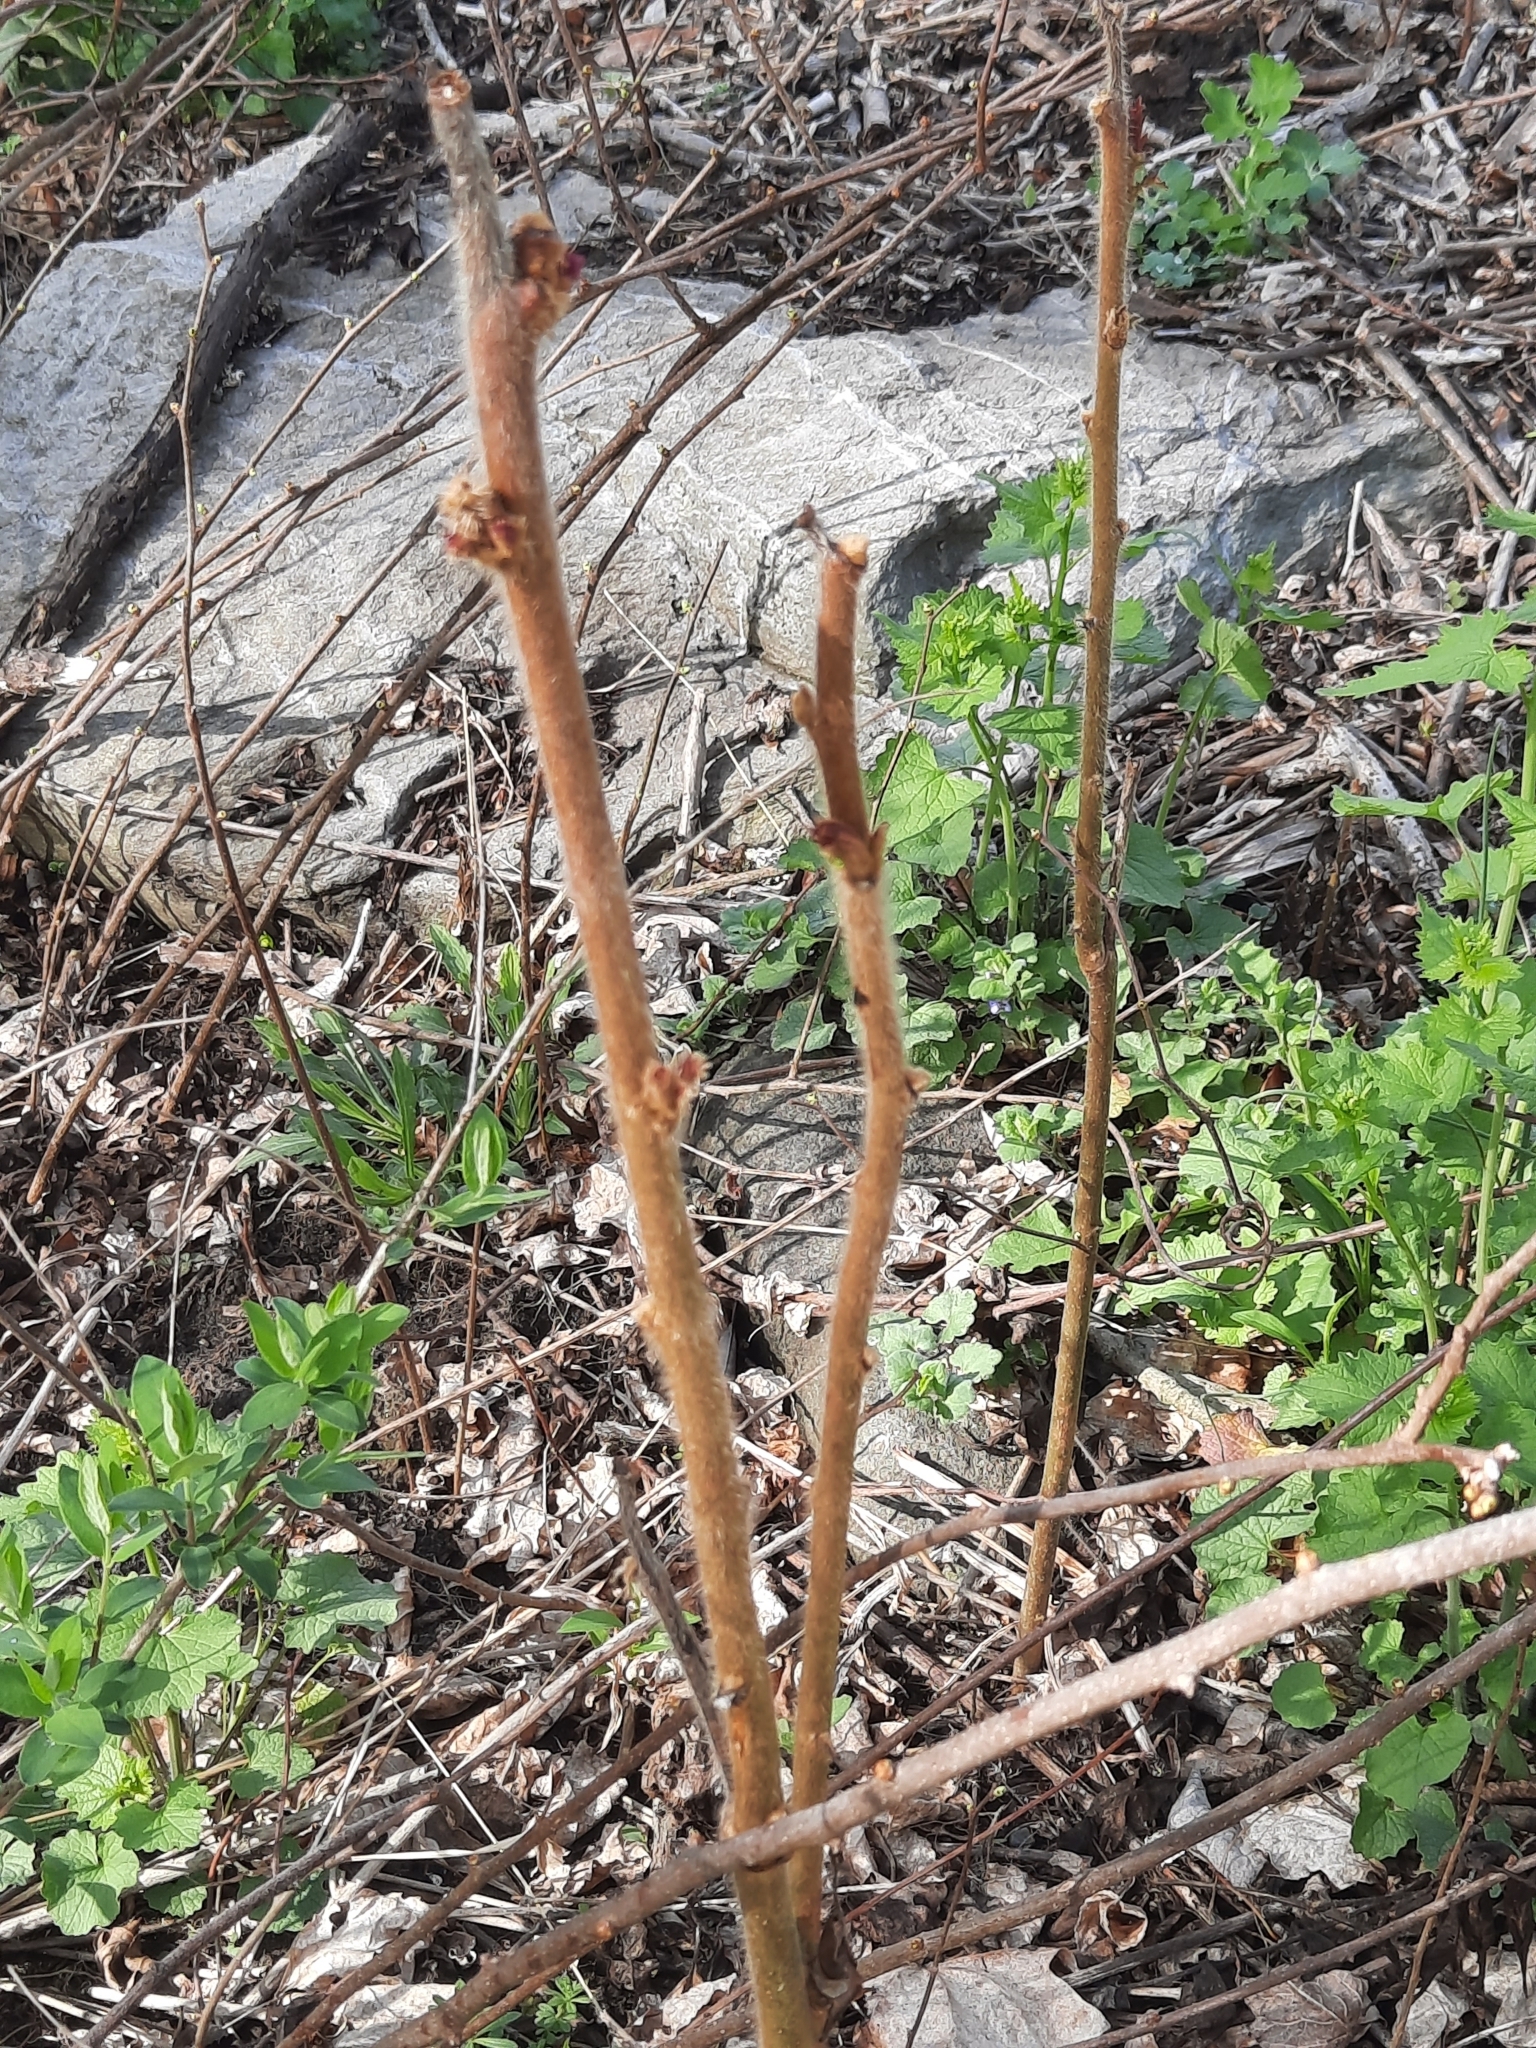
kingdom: Plantae
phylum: Tracheophyta
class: Magnoliopsida
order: Sapindales
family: Anacardiaceae
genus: Rhus
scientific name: Rhus typhina
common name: Staghorn sumac
